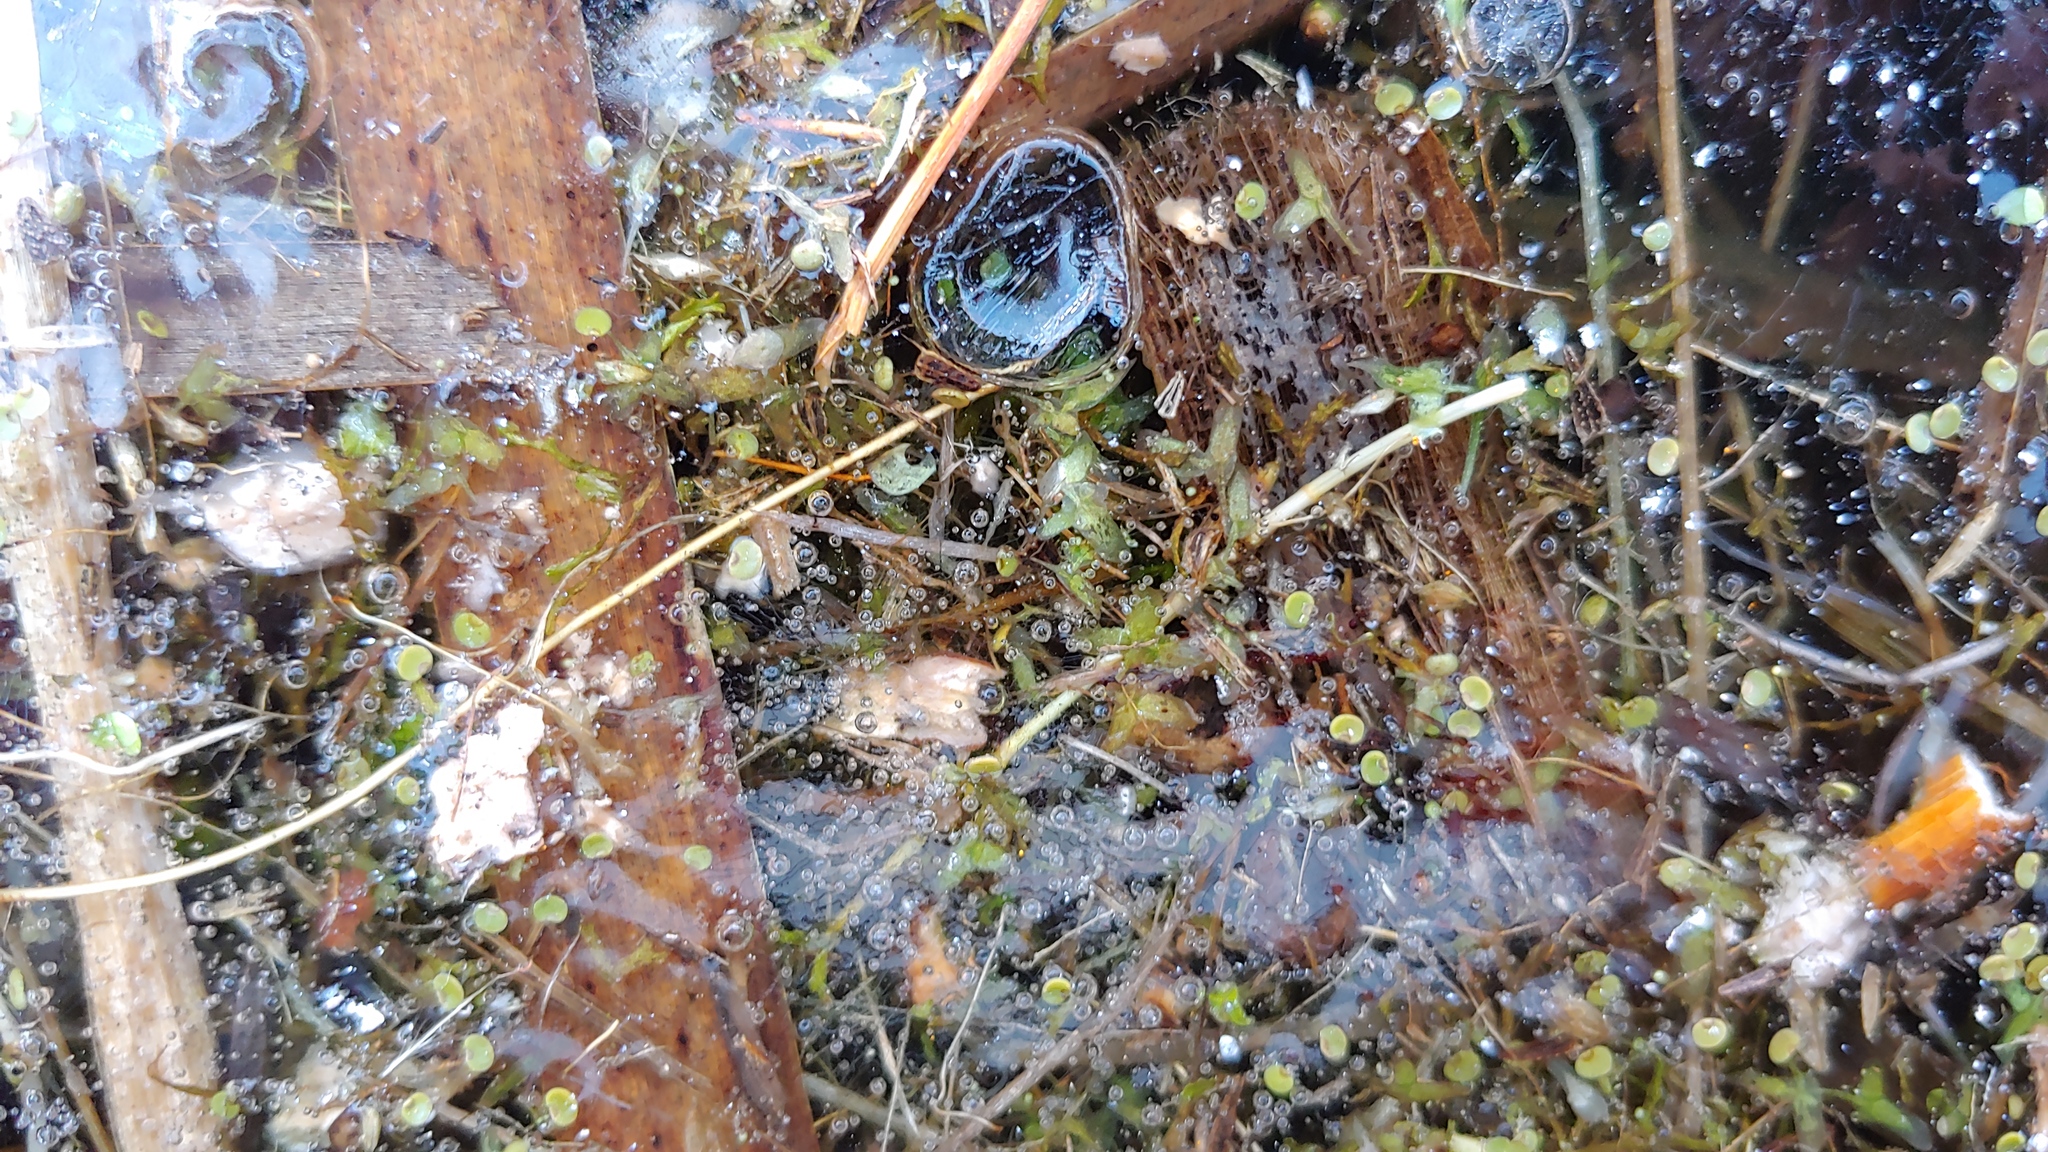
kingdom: Plantae
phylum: Tracheophyta
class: Liliopsida
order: Alismatales
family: Araceae
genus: Lemna
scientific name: Lemna trisulca
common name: Ivy-leaved duckweed
